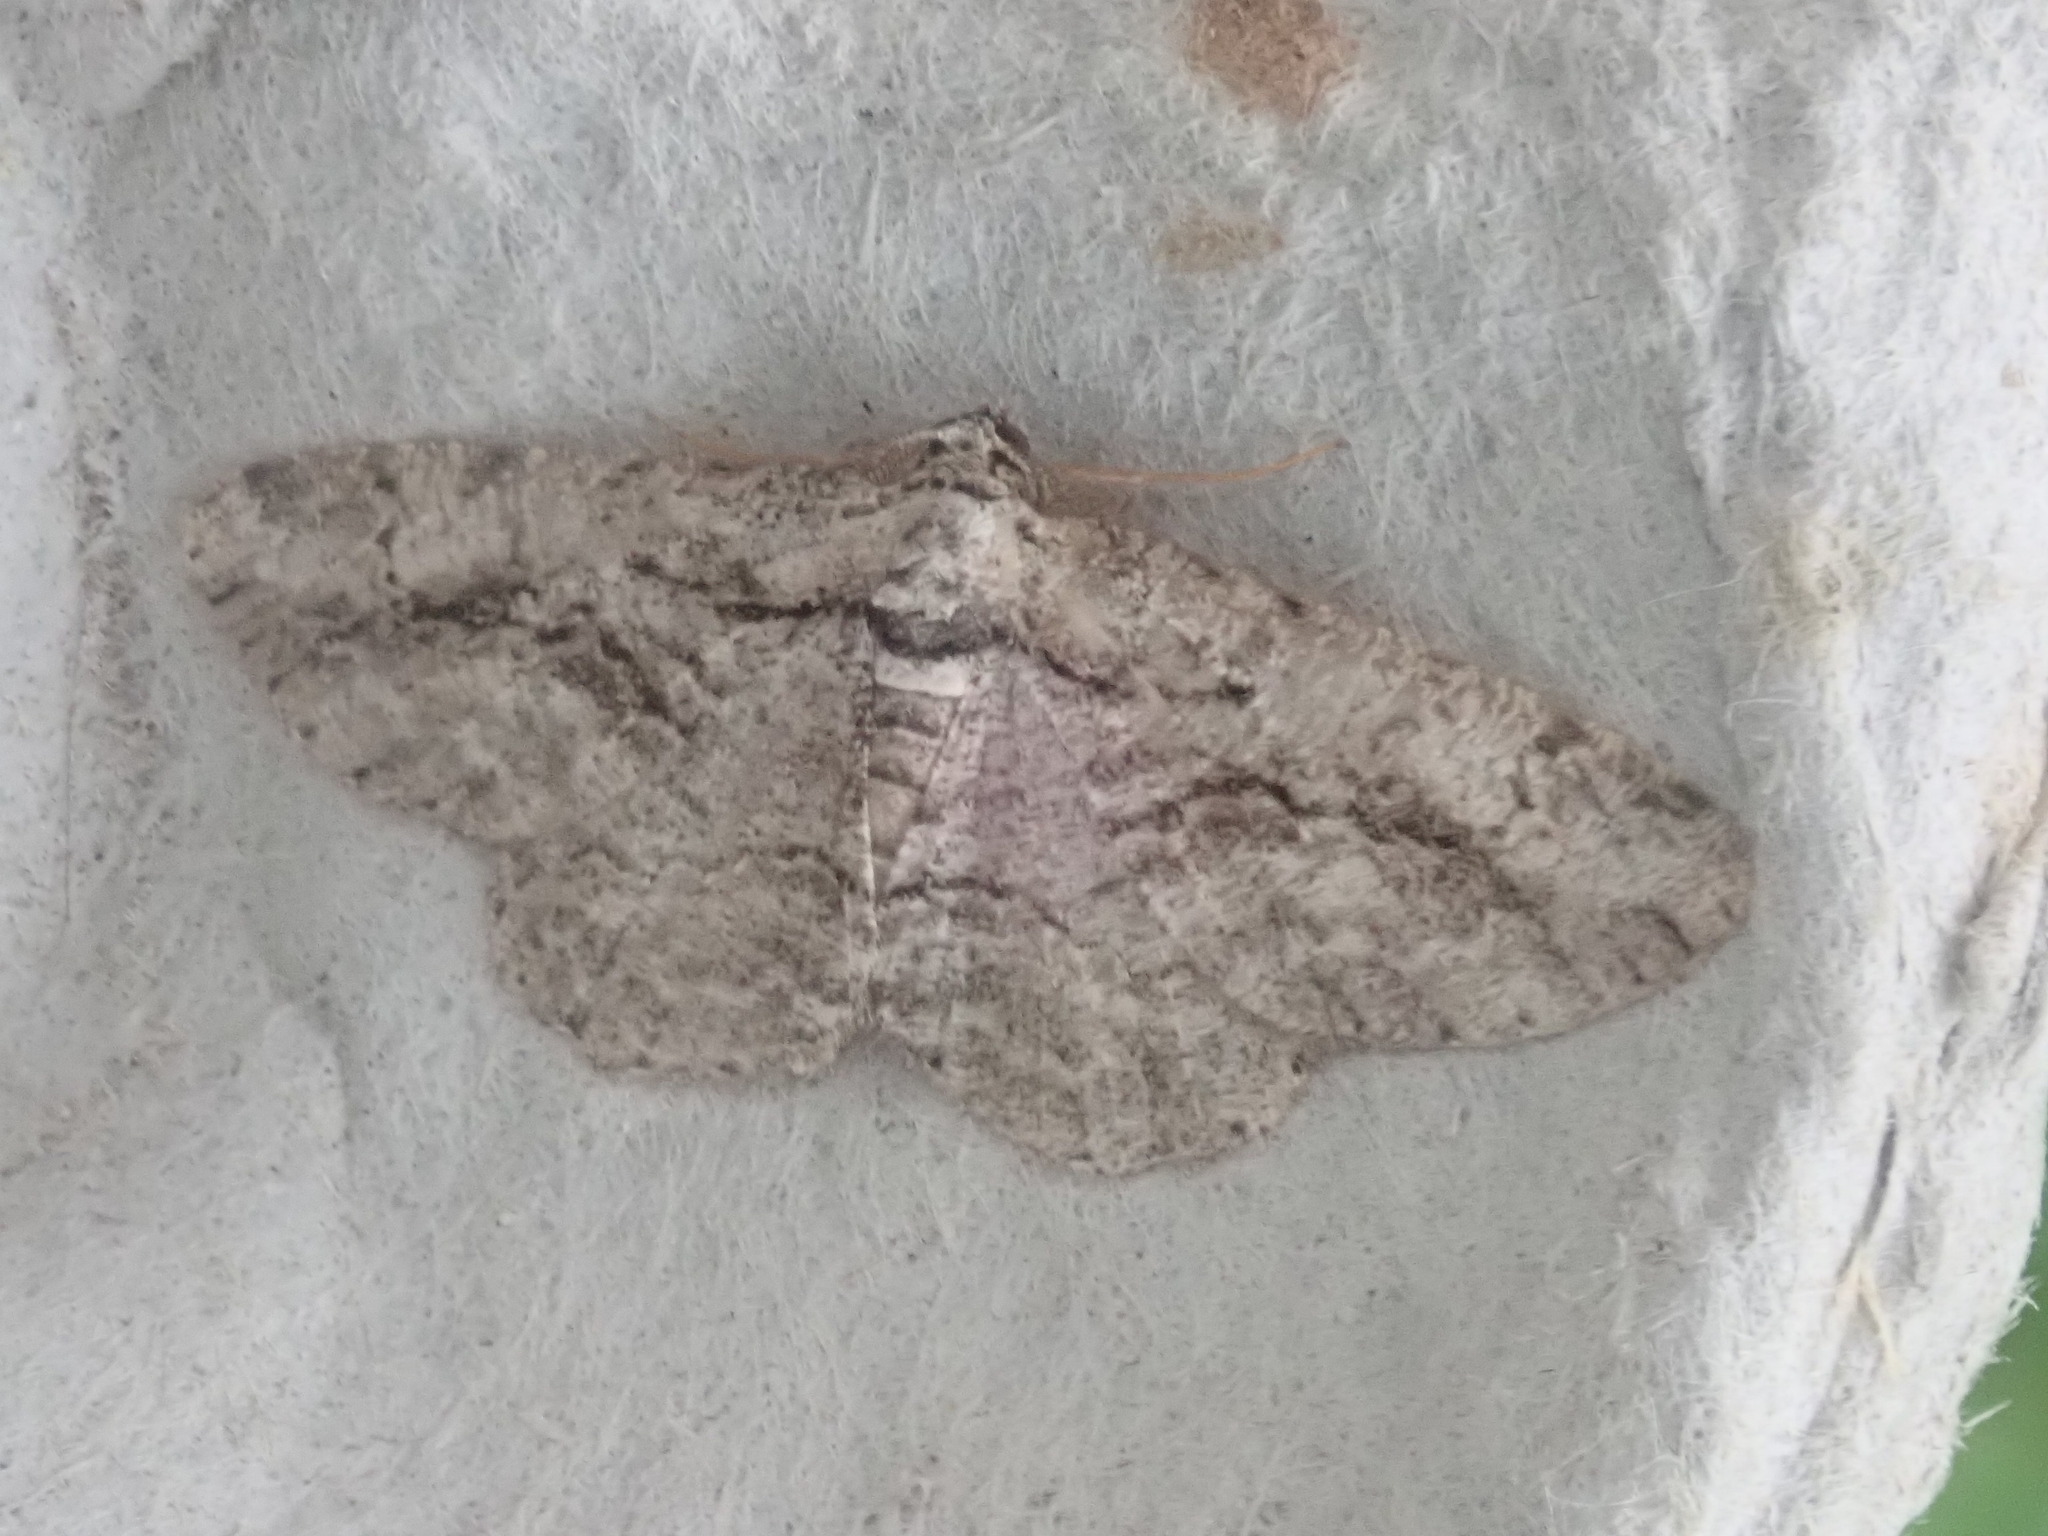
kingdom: Animalia
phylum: Arthropoda
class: Insecta
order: Lepidoptera
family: Geometridae
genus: Anavitrinella
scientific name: Anavitrinella pampinaria
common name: Common gray
